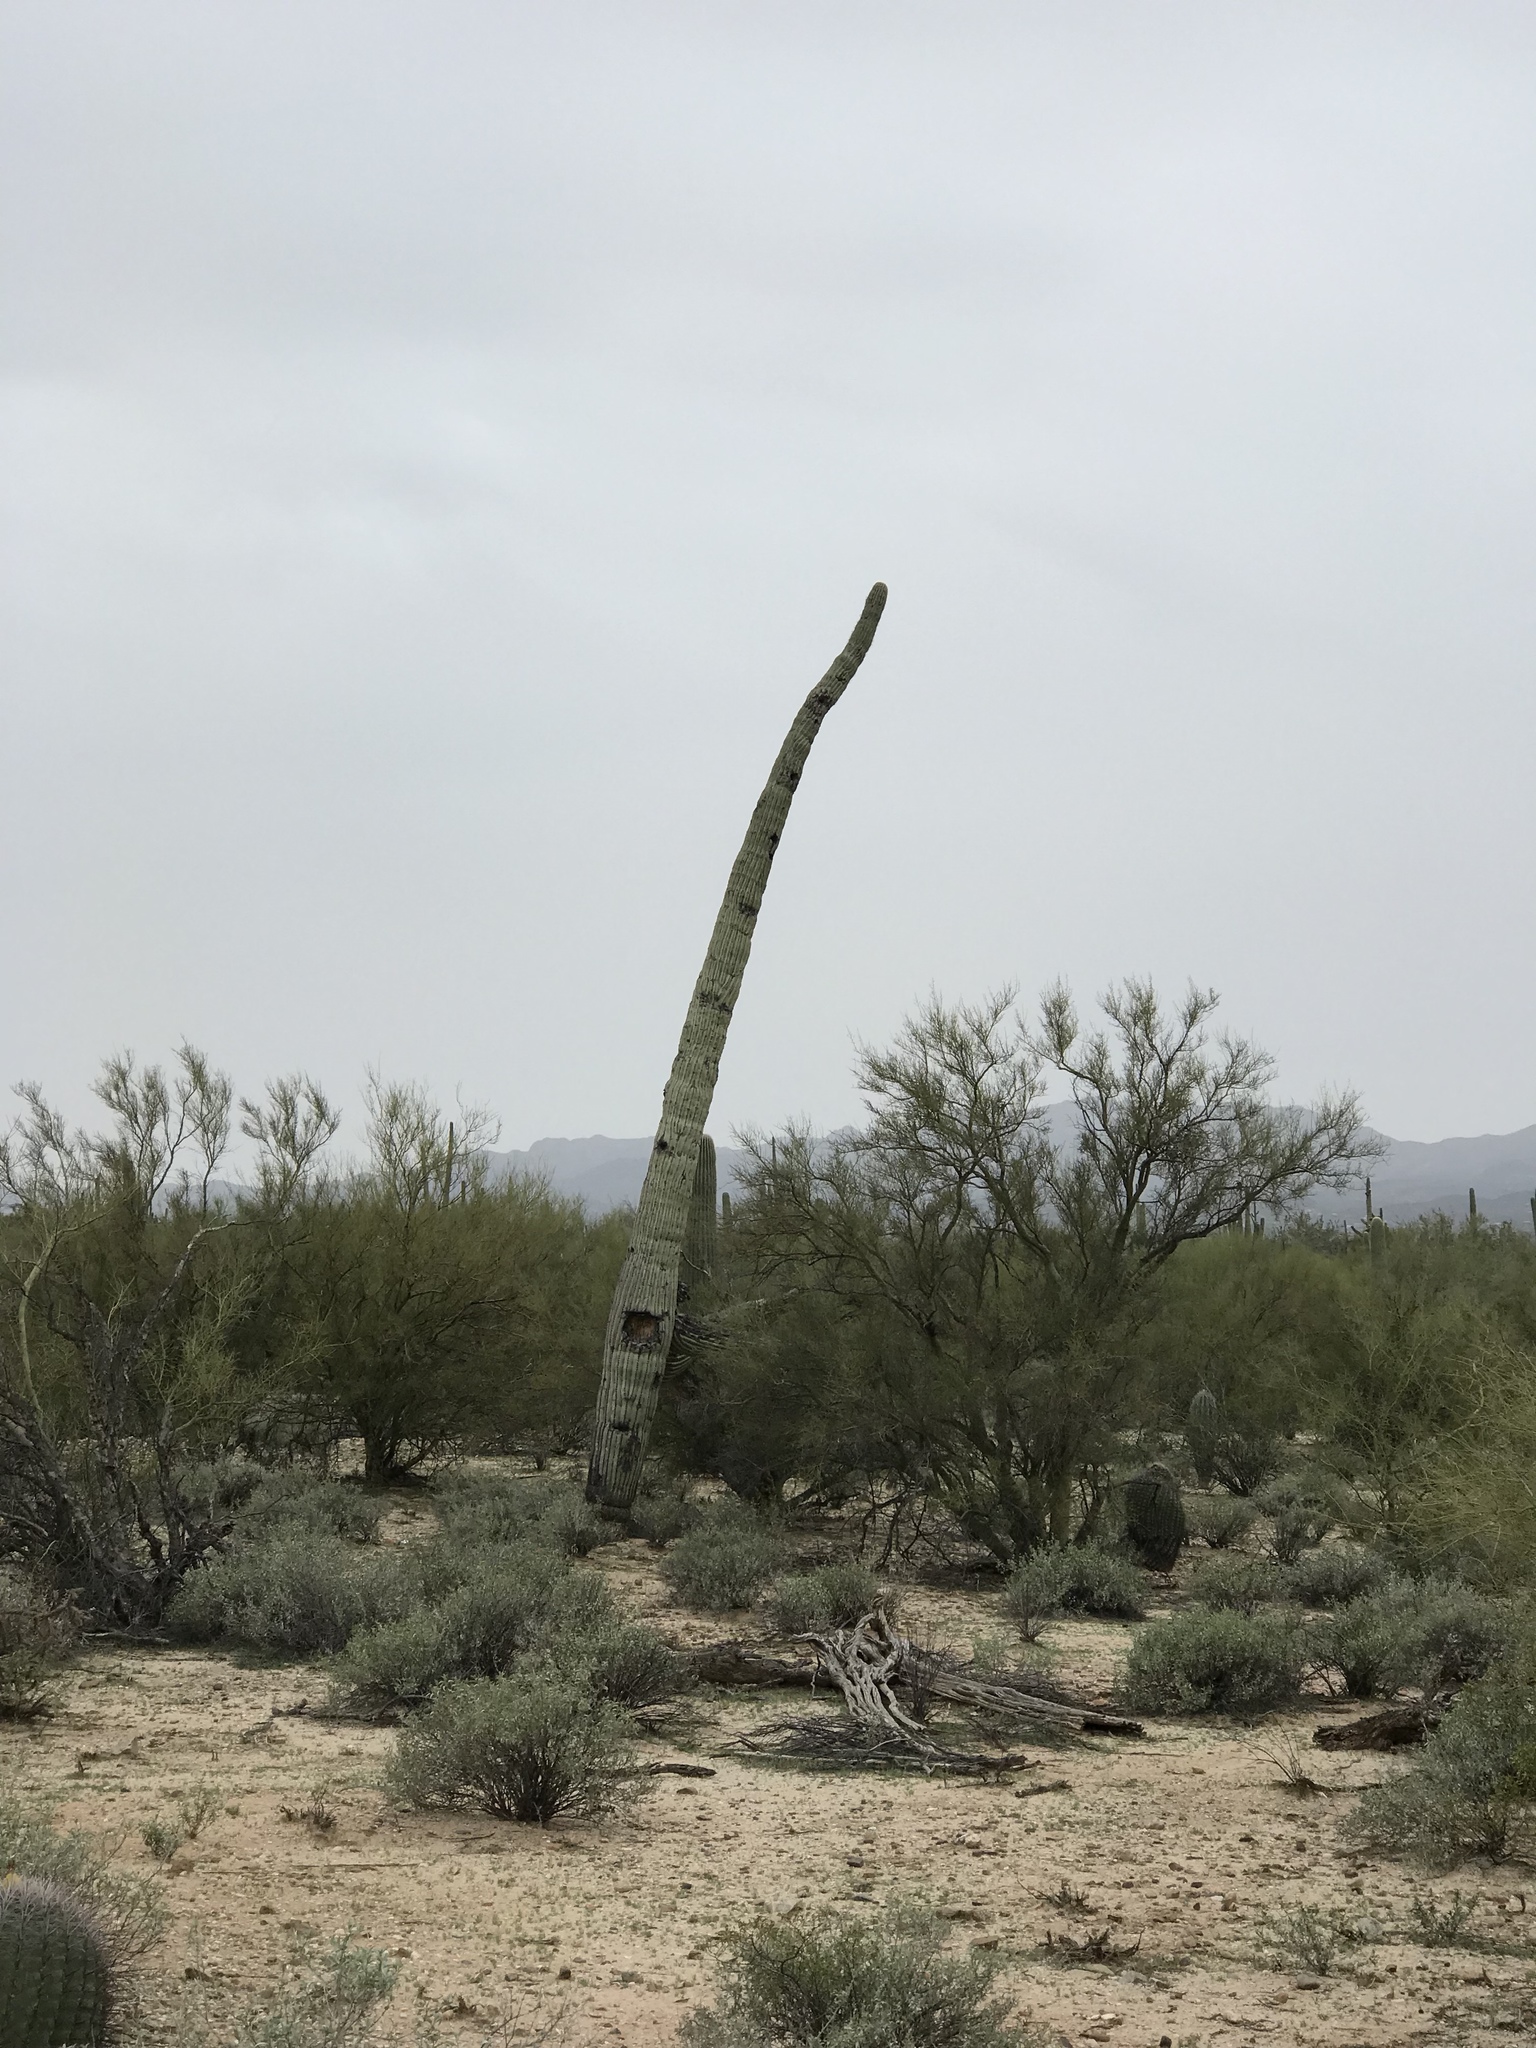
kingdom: Plantae
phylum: Tracheophyta
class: Magnoliopsida
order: Caryophyllales
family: Cactaceae
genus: Carnegiea
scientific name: Carnegiea gigantea
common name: Saguaro
